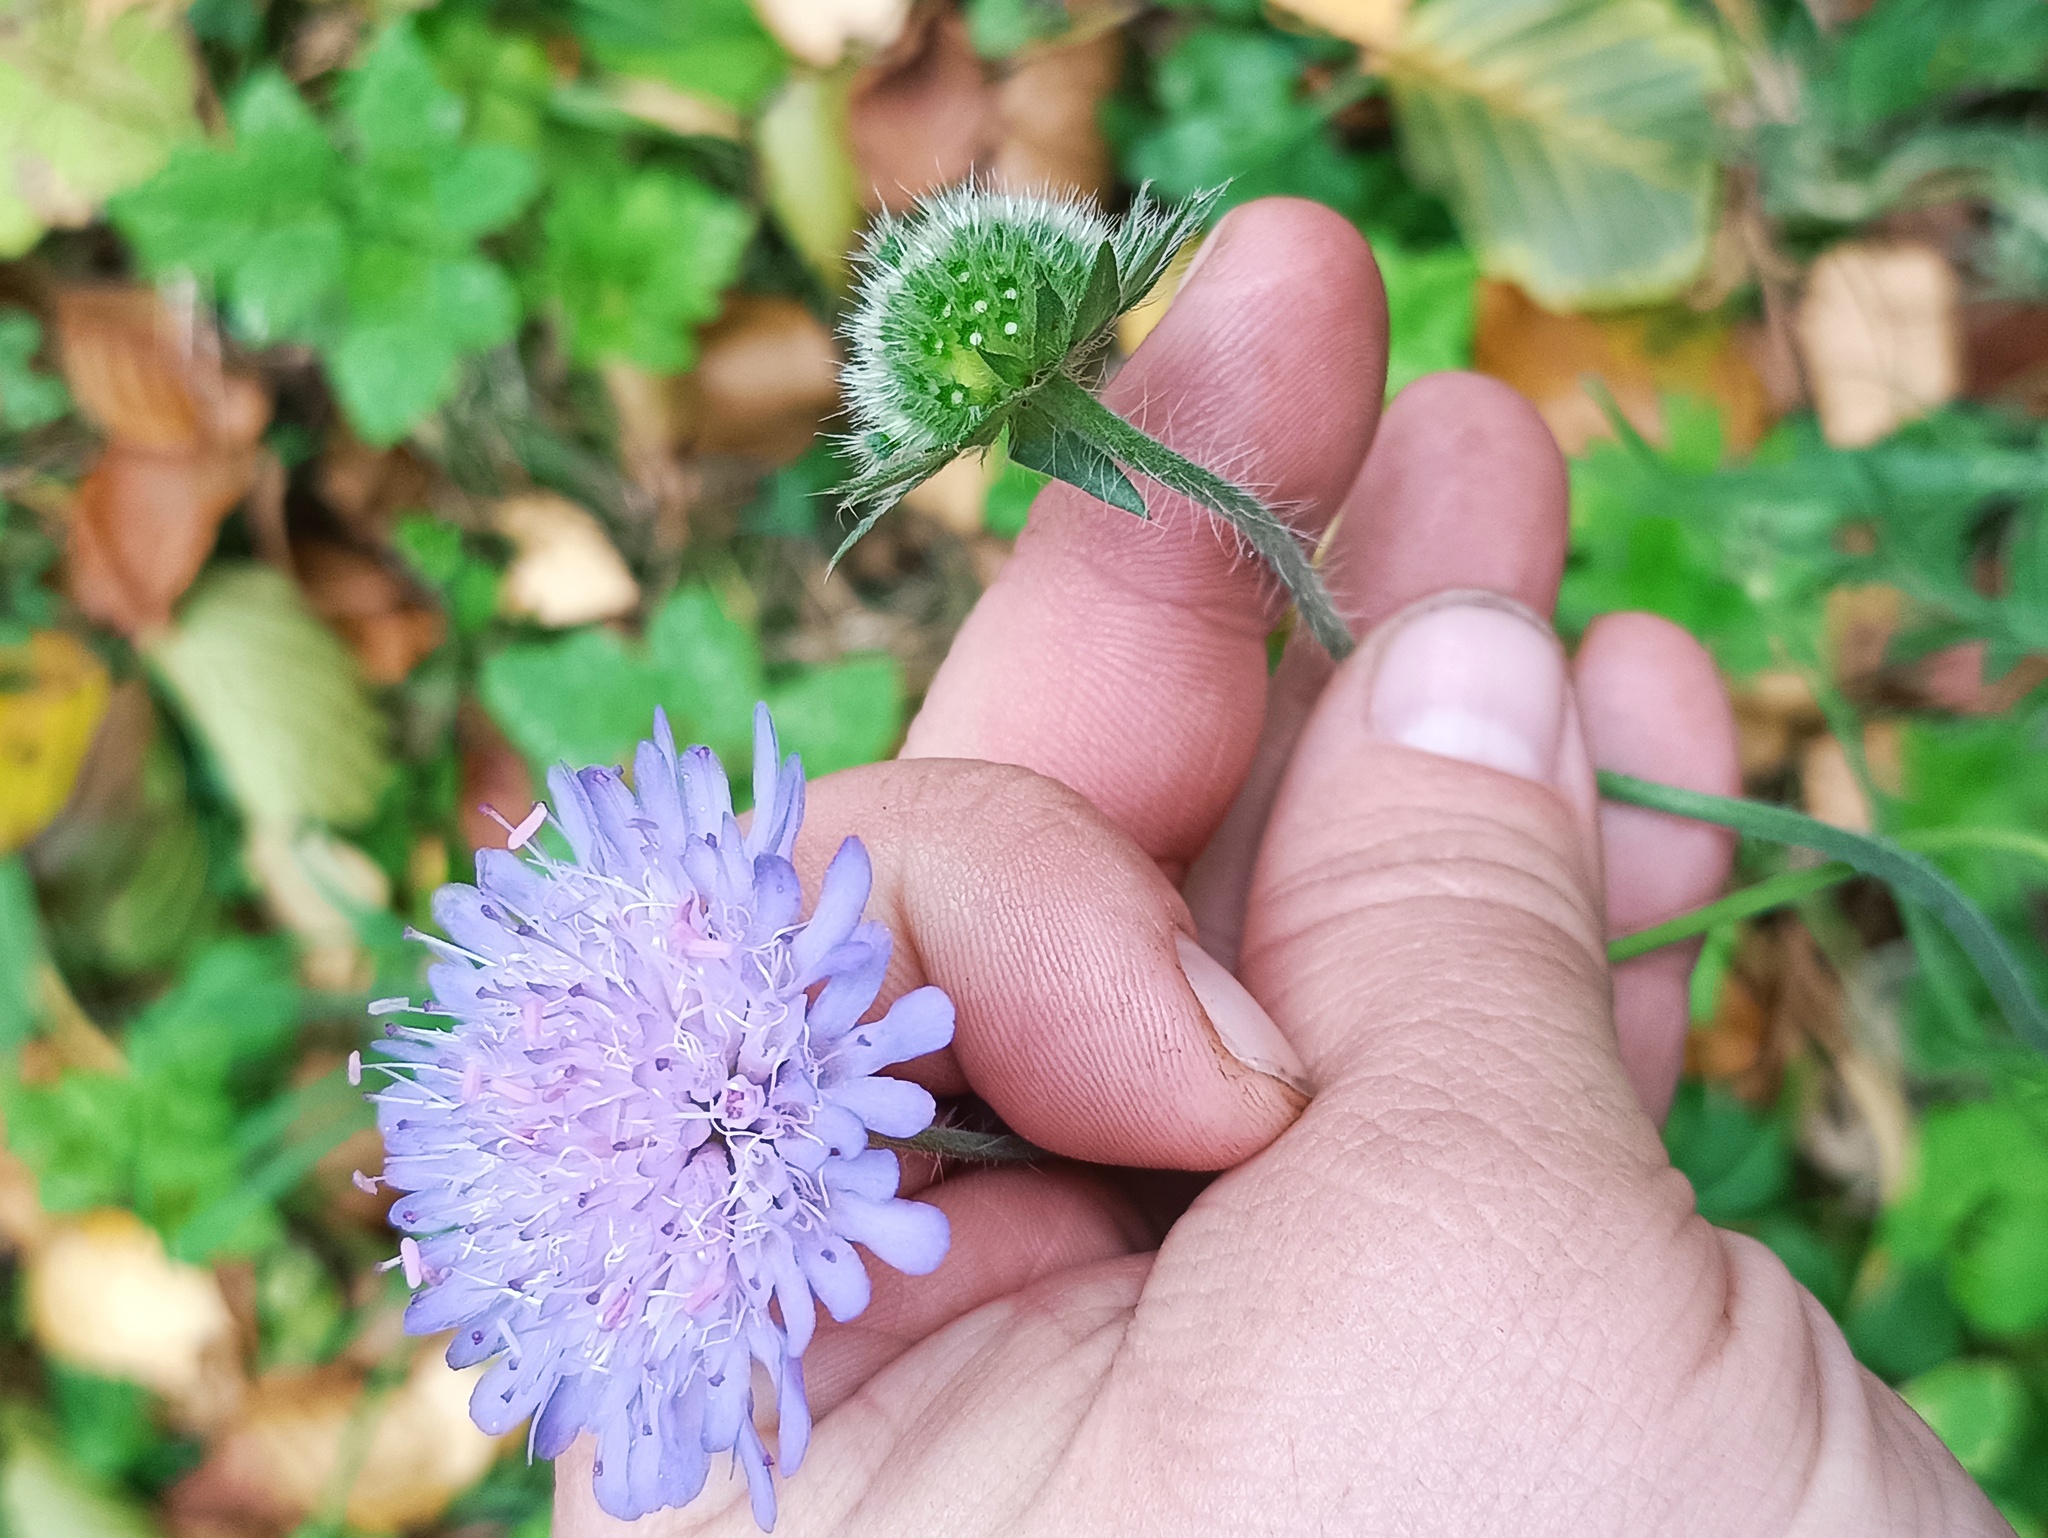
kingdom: Plantae
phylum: Tracheophyta
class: Magnoliopsida
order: Dipsacales
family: Caprifoliaceae
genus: Knautia
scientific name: Knautia arvensis
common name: Field scabiosa
